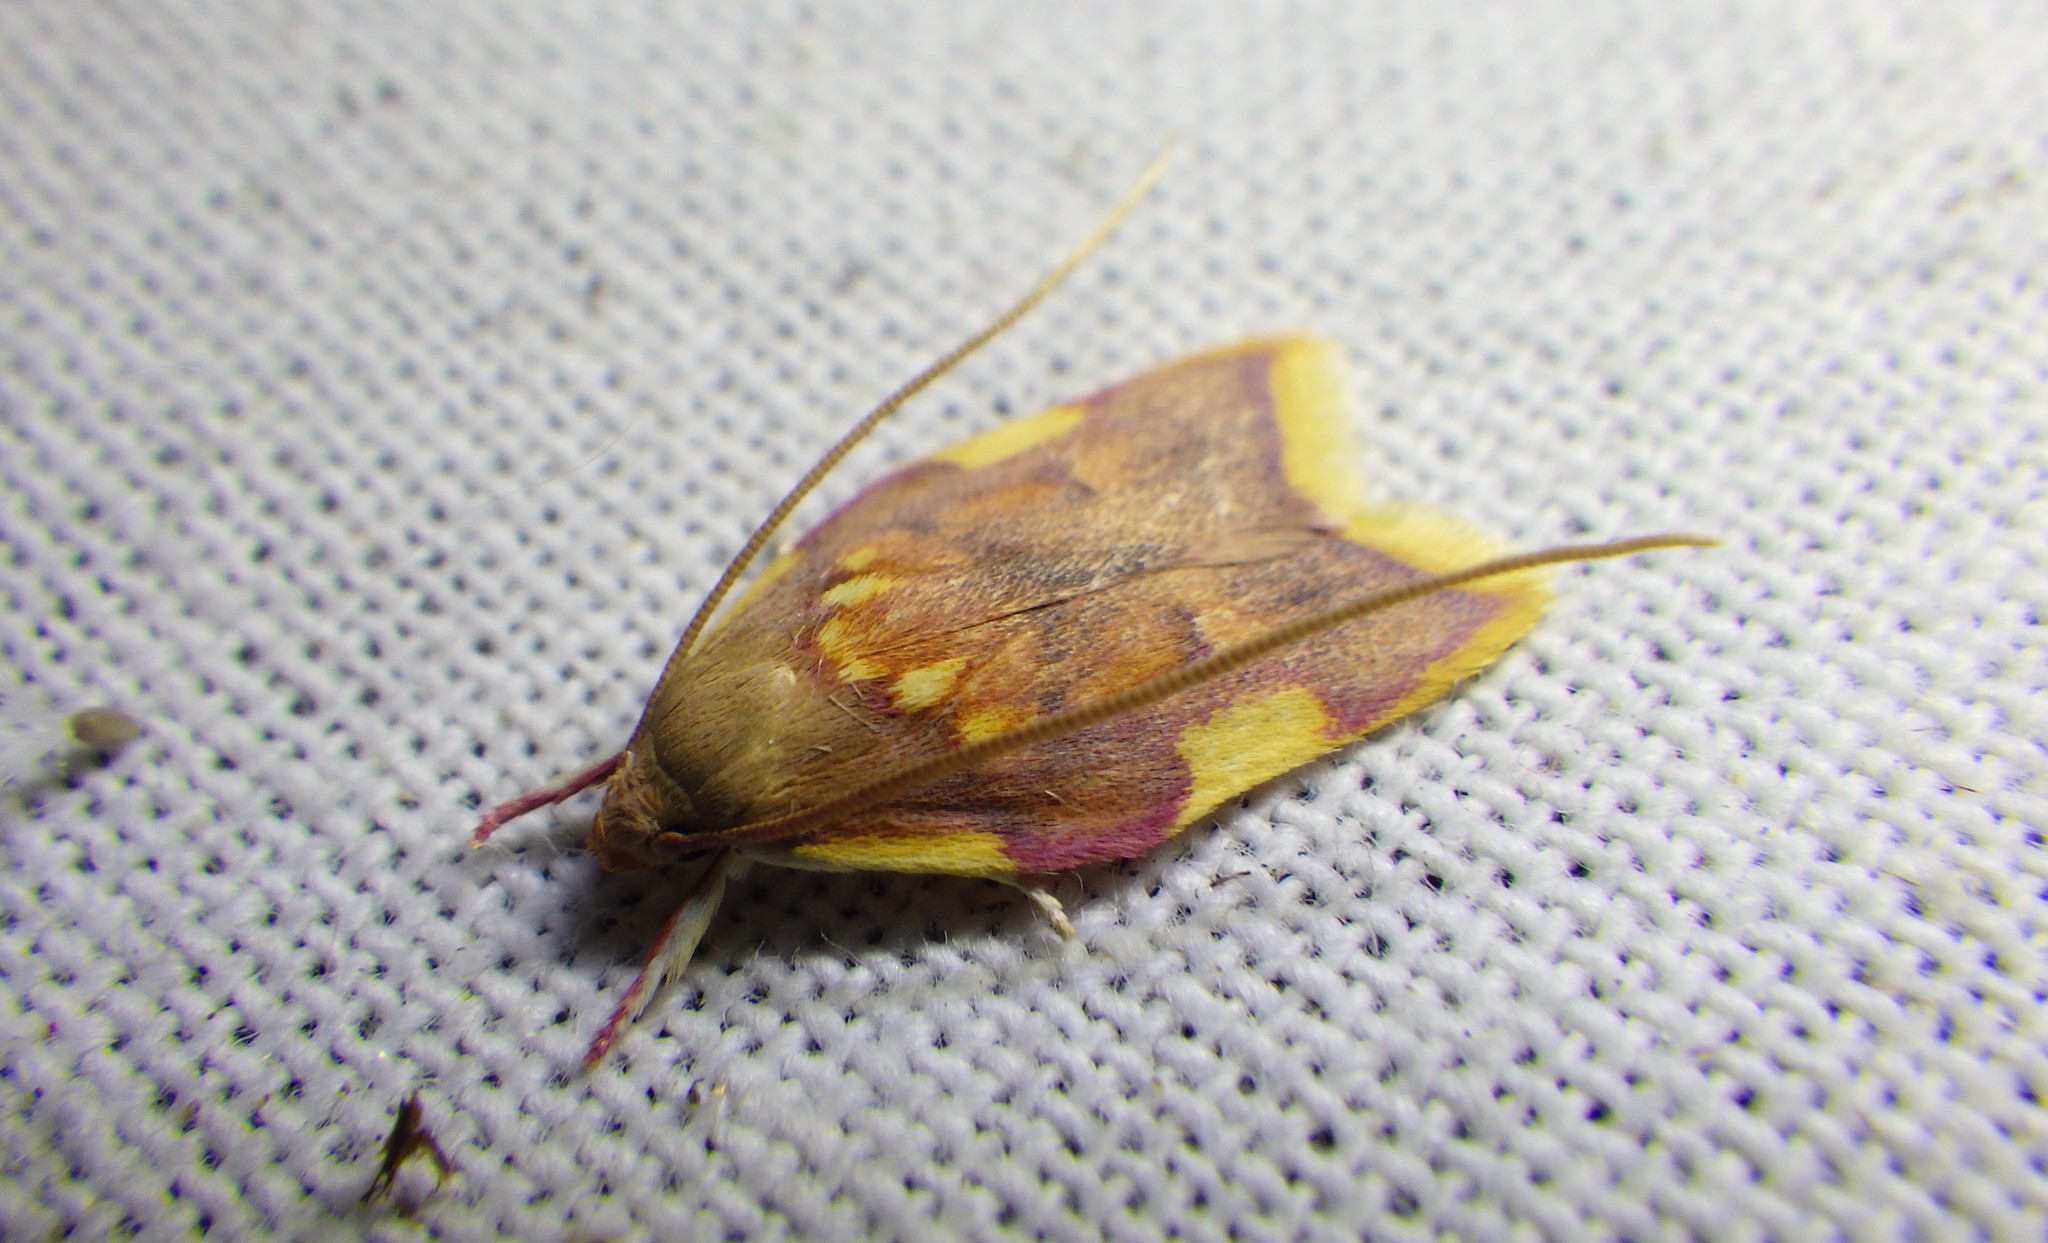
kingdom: Animalia
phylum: Arthropoda
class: Insecta
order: Lepidoptera
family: Peleopodidae
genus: Carcina
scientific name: Carcina quercana
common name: Moth
